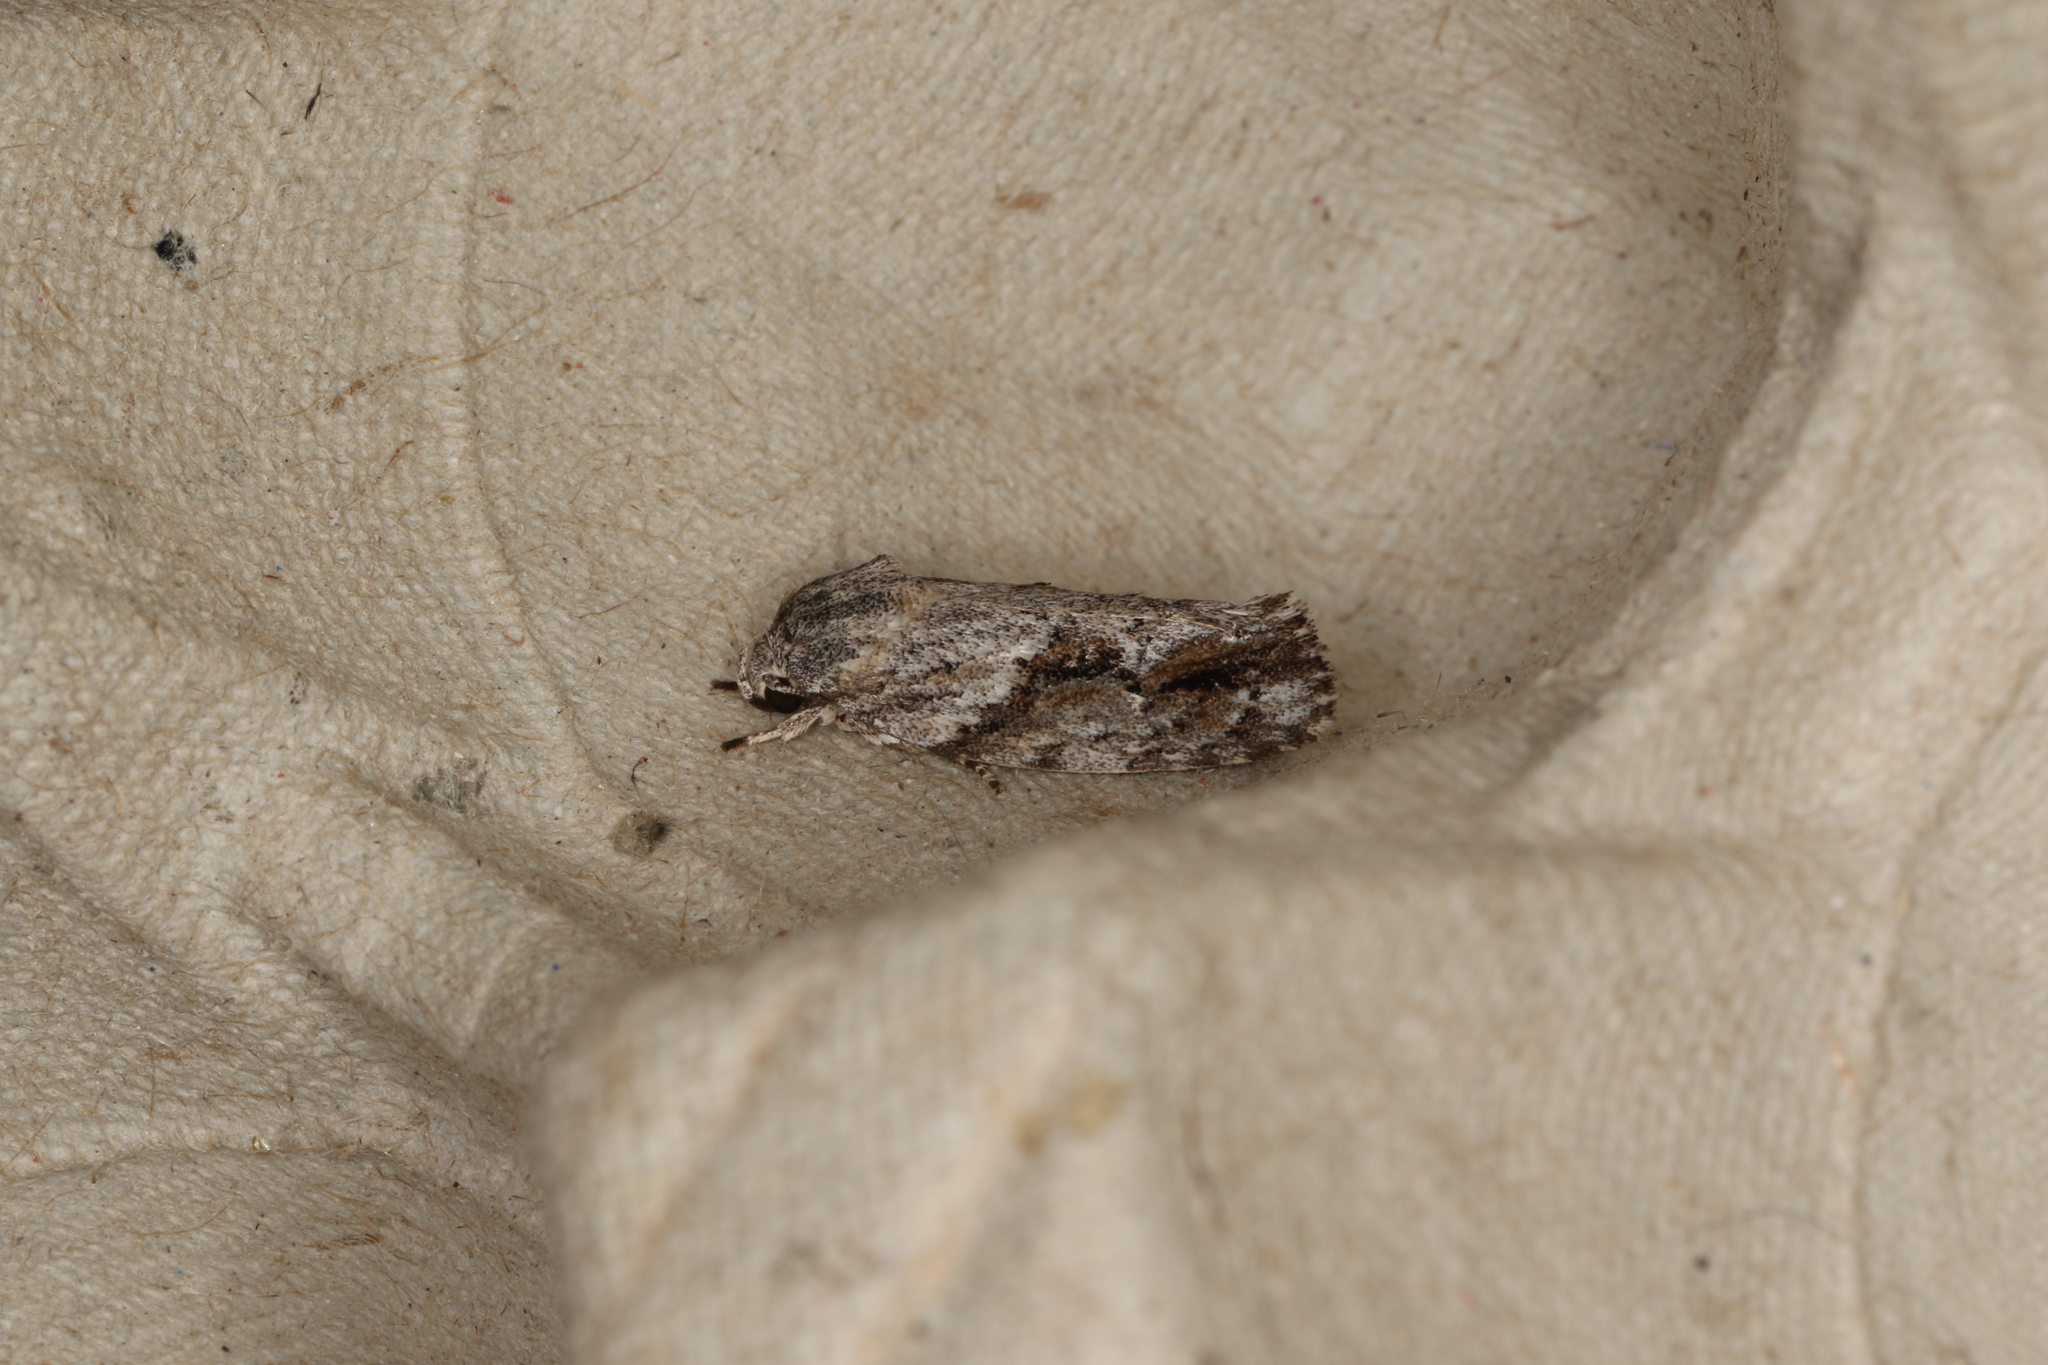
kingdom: Animalia
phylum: Arthropoda
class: Insecta
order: Lepidoptera
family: Depressariidae
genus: Agriophara
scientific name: Agriophara confertella
